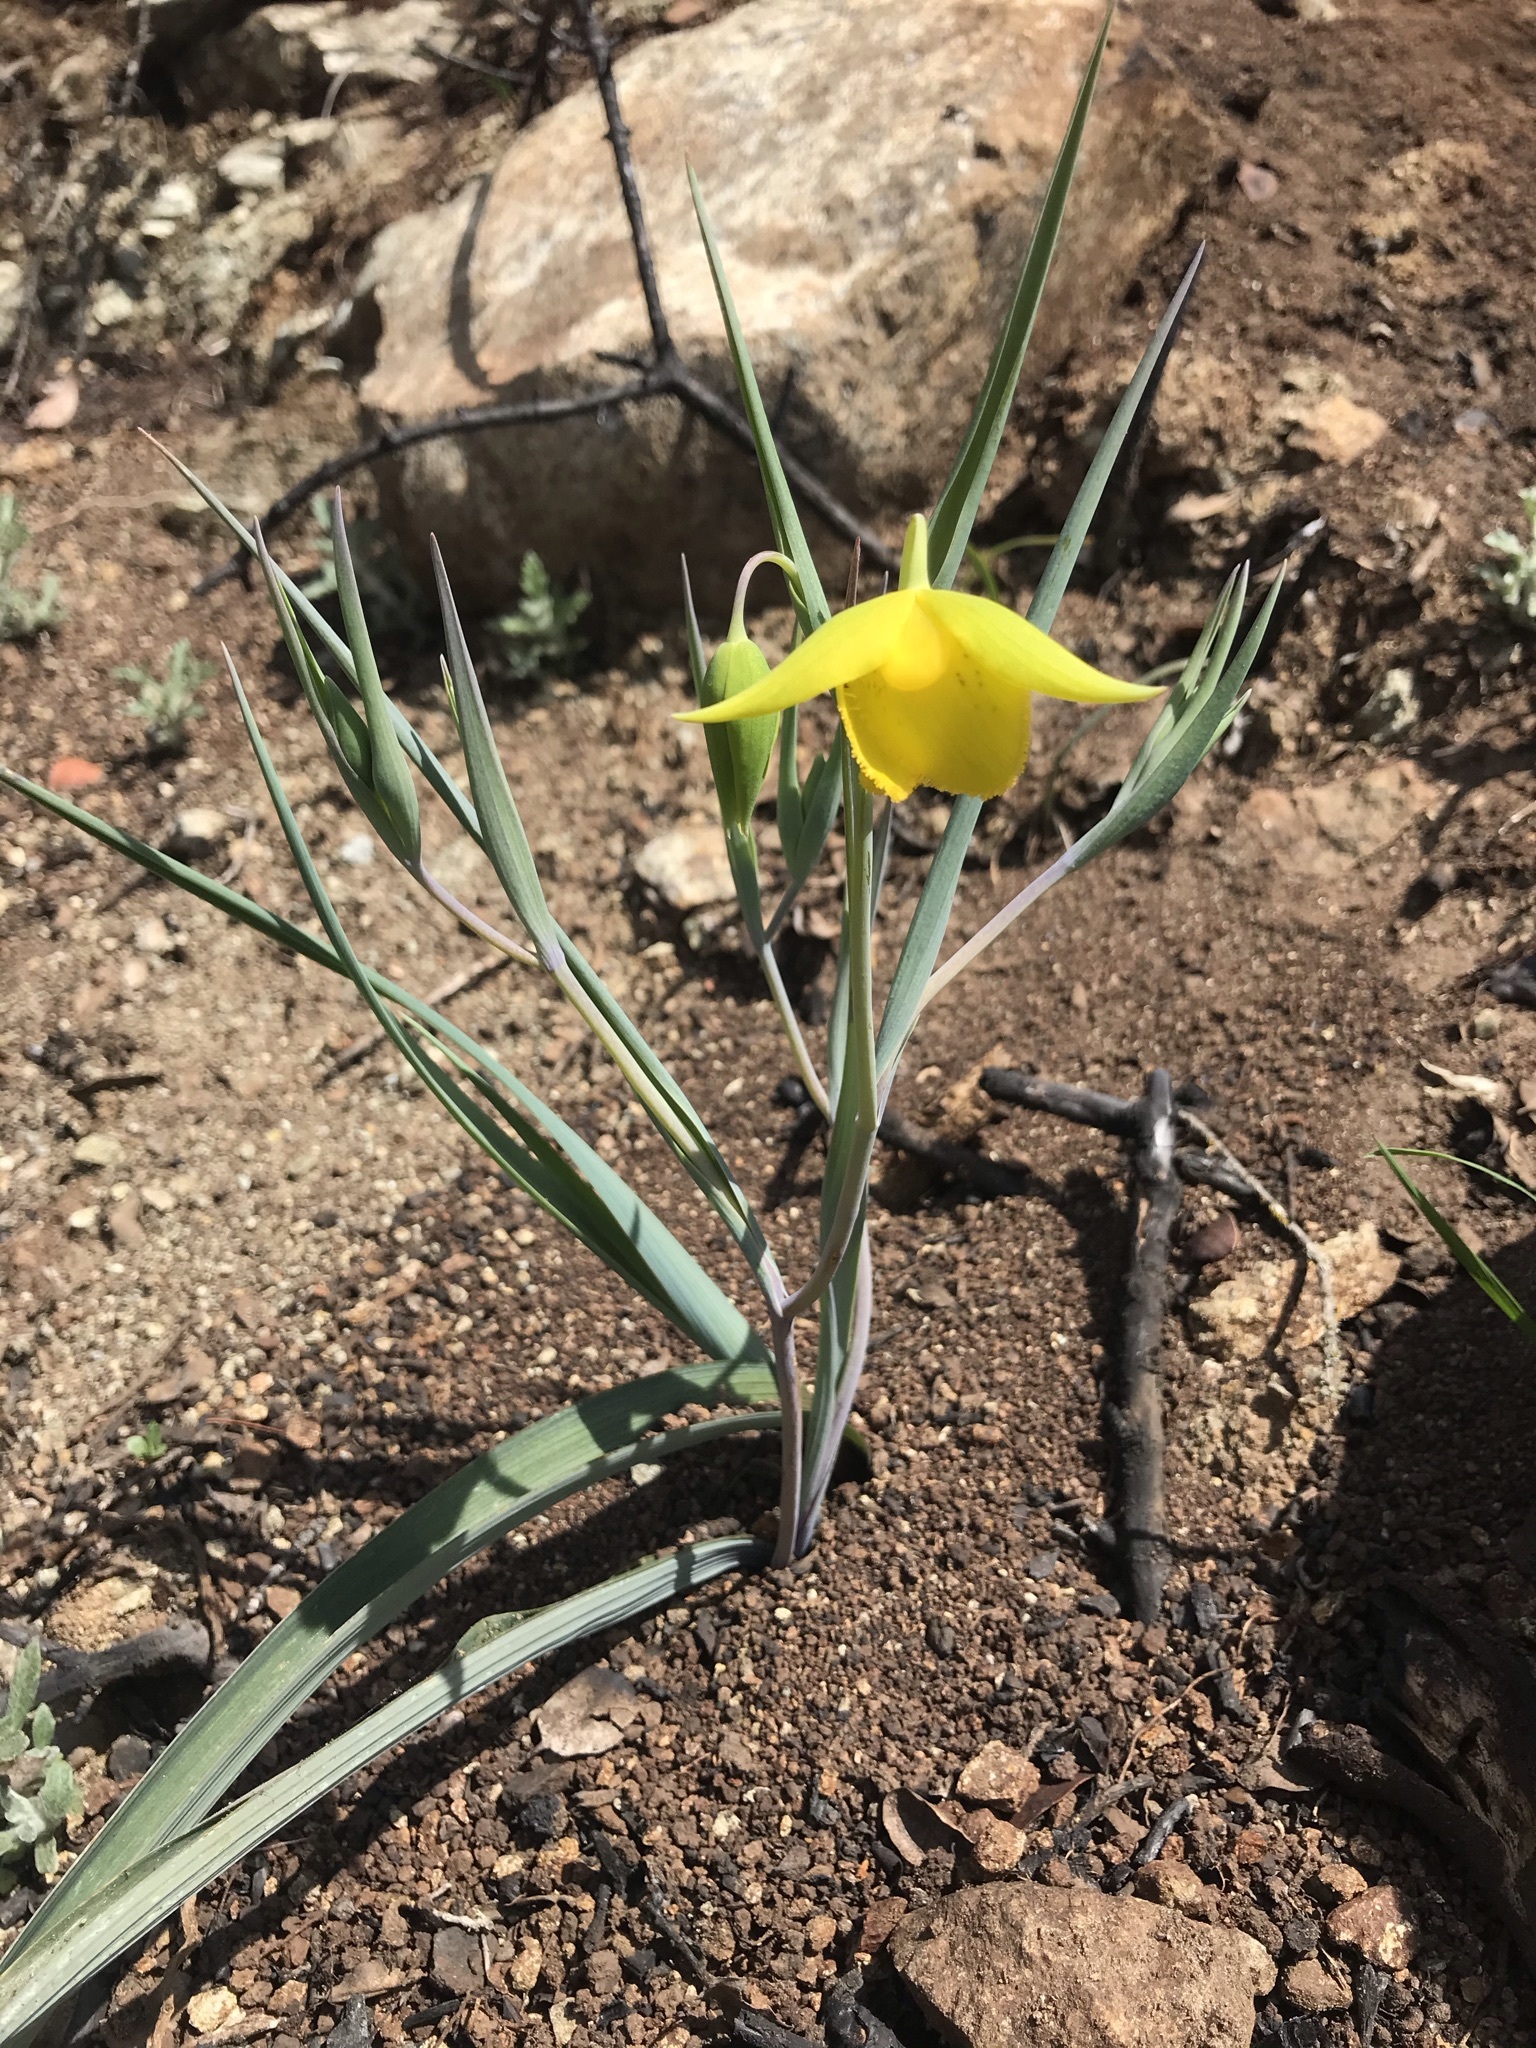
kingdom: Plantae
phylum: Tracheophyta
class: Liliopsida
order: Liliales
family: Liliaceae
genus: Calochortus
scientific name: Calochortus amabilis
